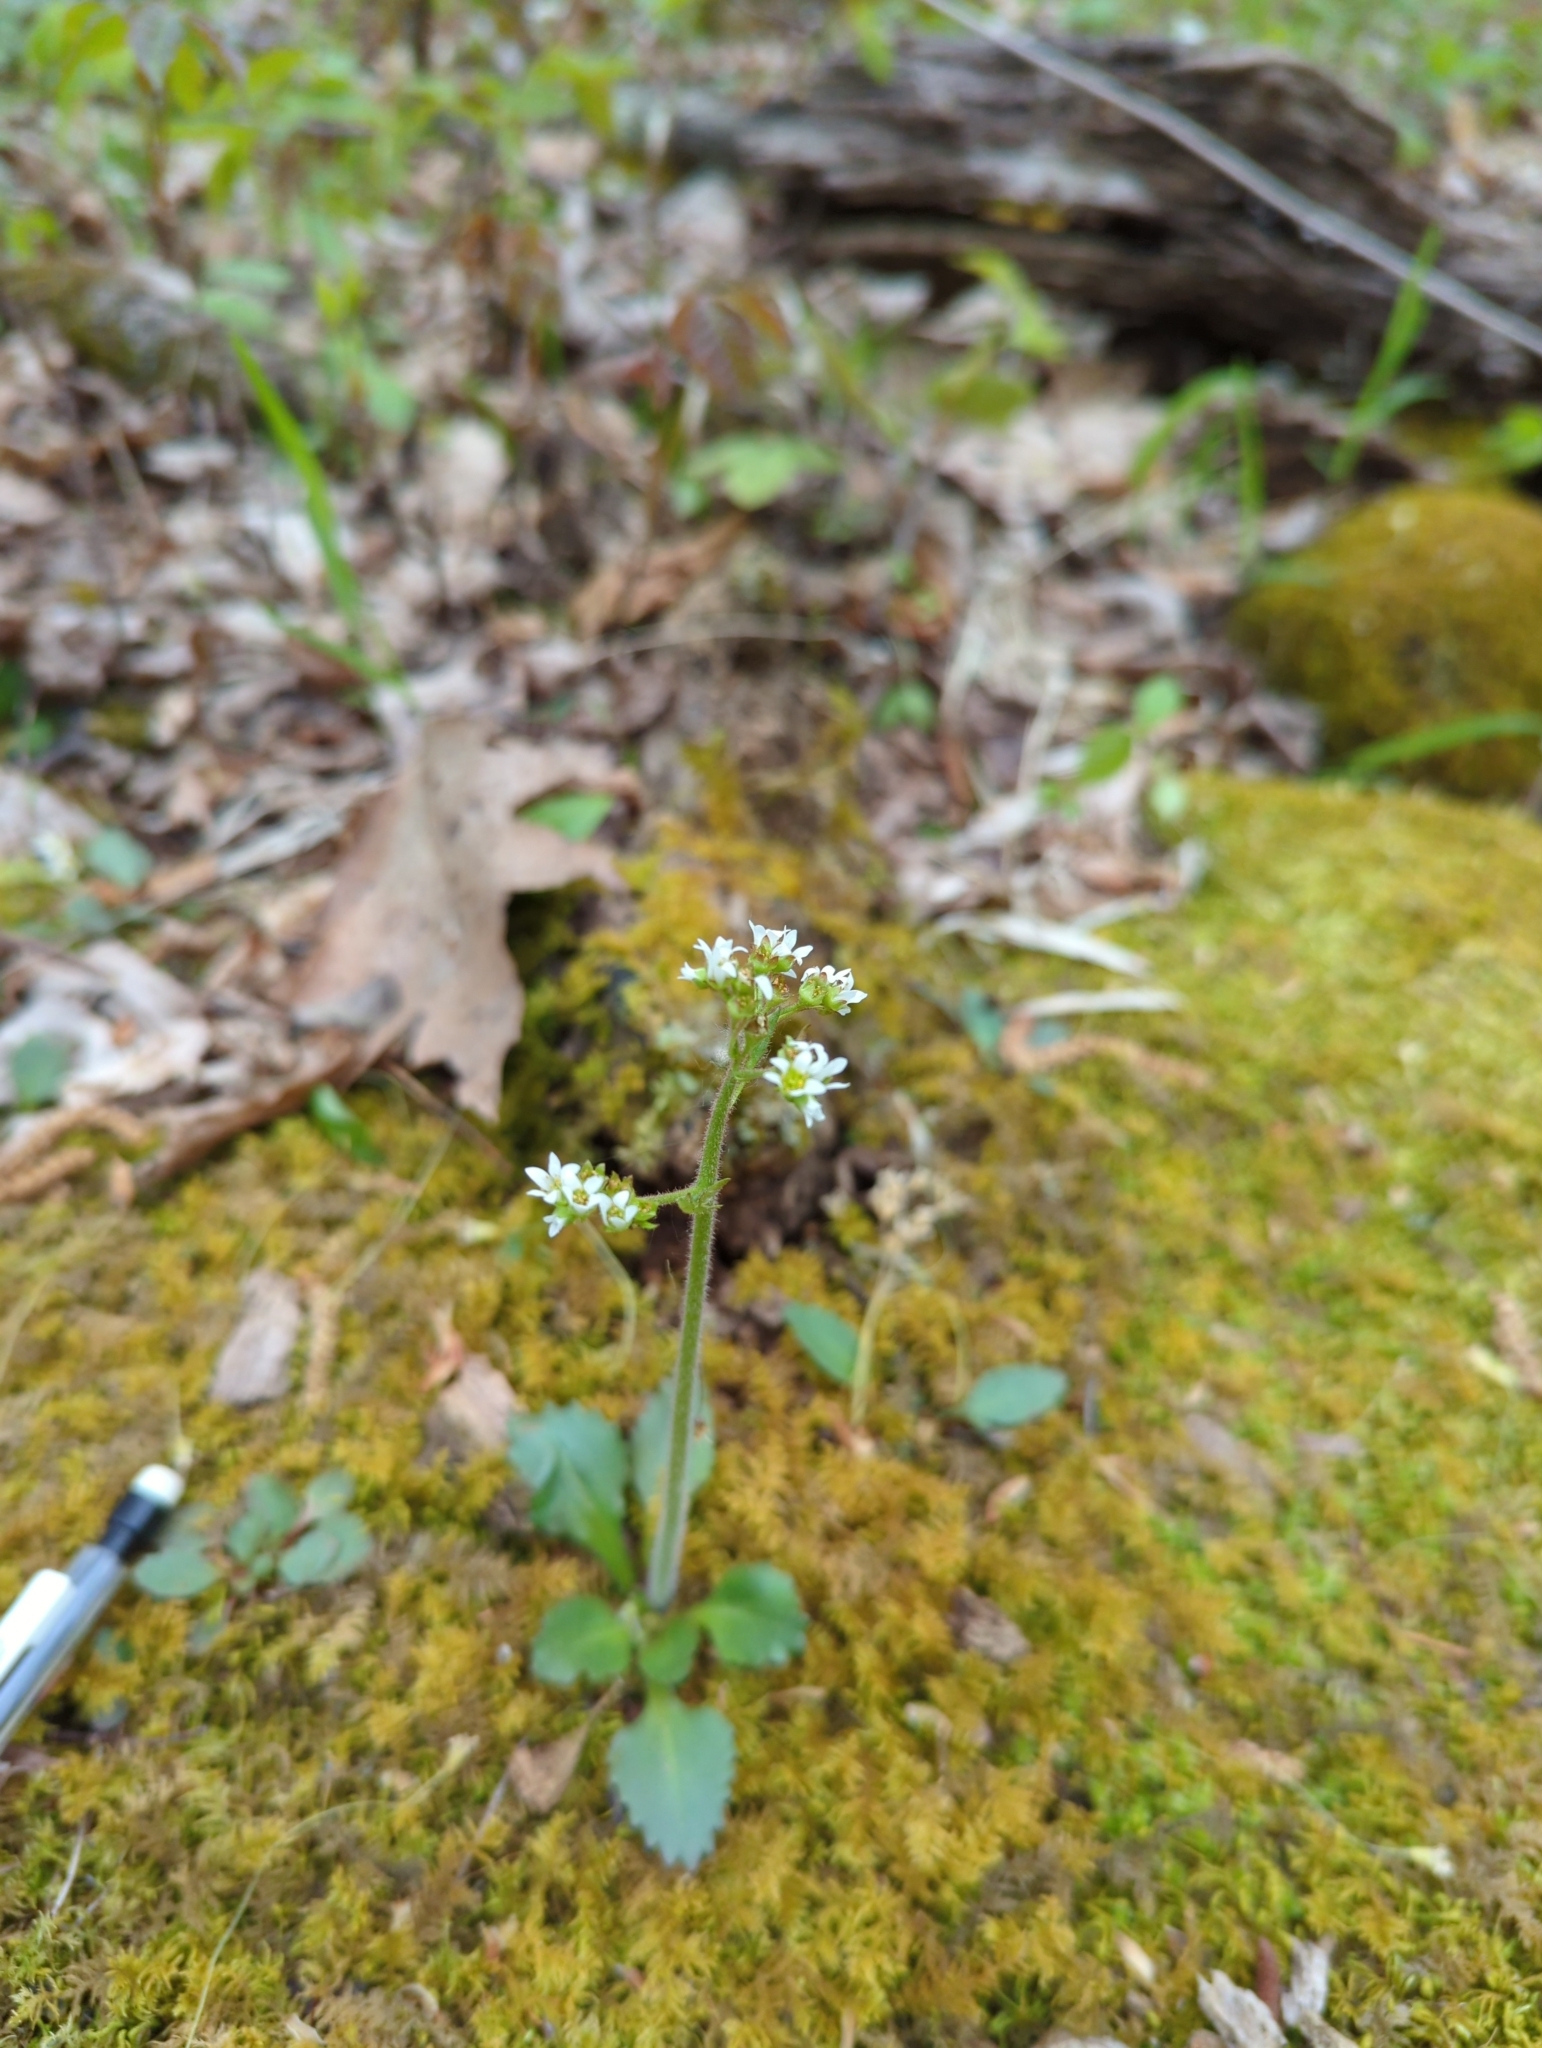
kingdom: Plantae
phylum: Tracheophyta
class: Magnoliopsida
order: Saxifragales
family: Saxifragaceae
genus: Micranthes
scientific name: Micranthes virginiensis
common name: Early saxifrage
